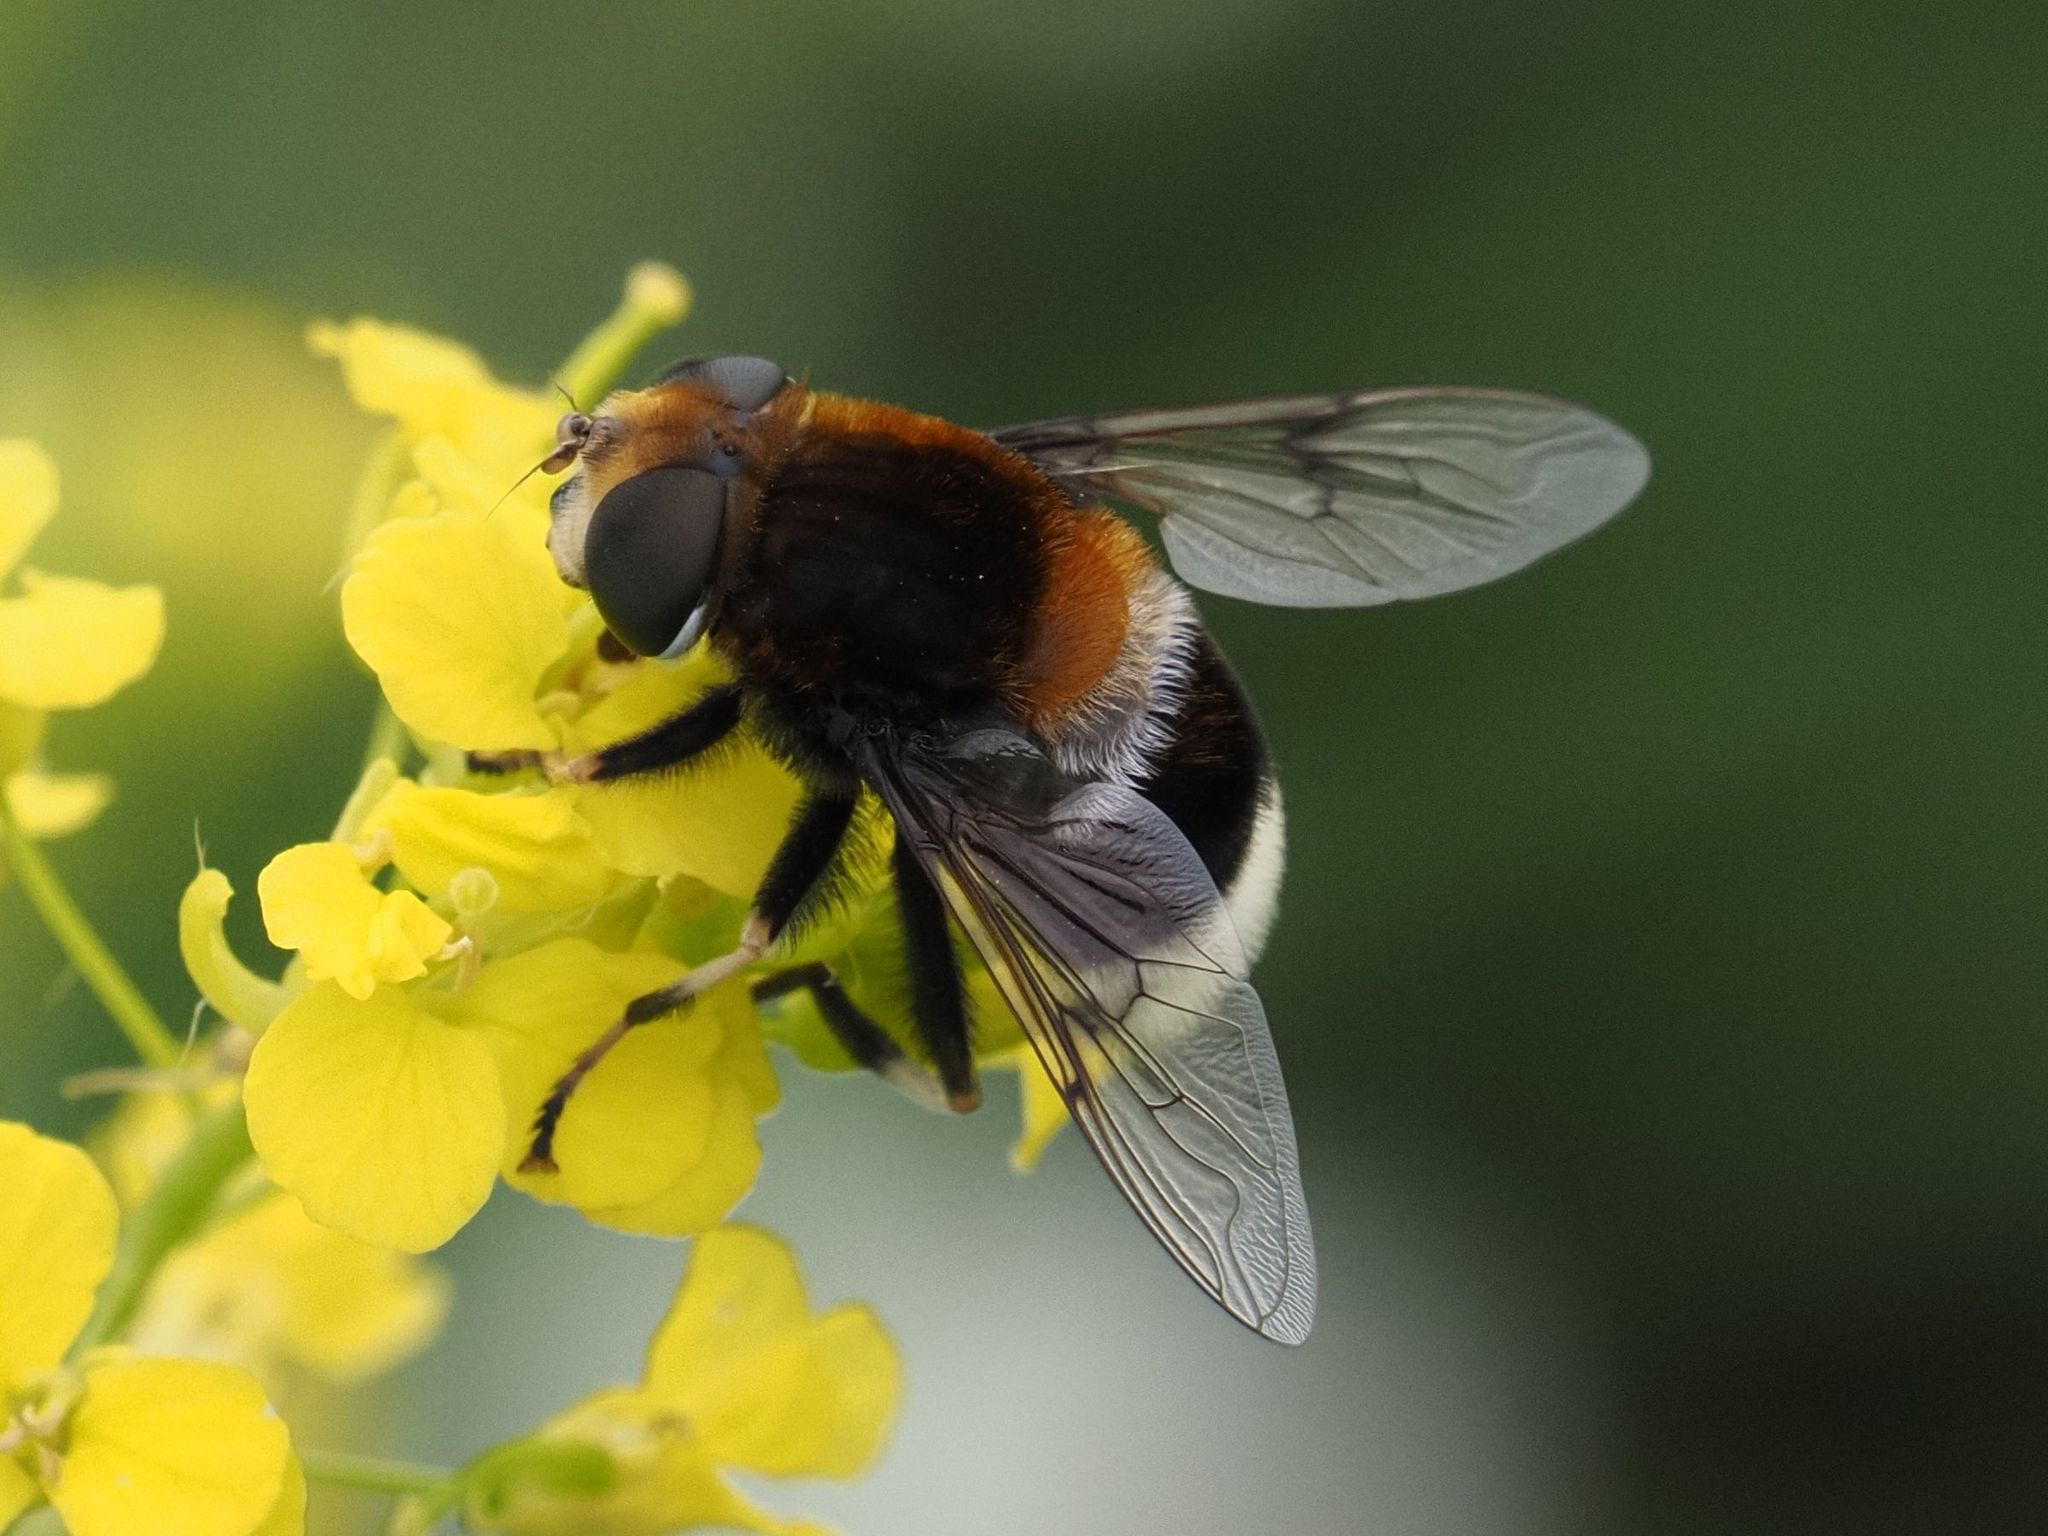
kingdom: Animalia
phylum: Arthropoda
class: Insecta
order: Diptera
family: Syrphidae
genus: Eristalis
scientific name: Eristalis intricaria
